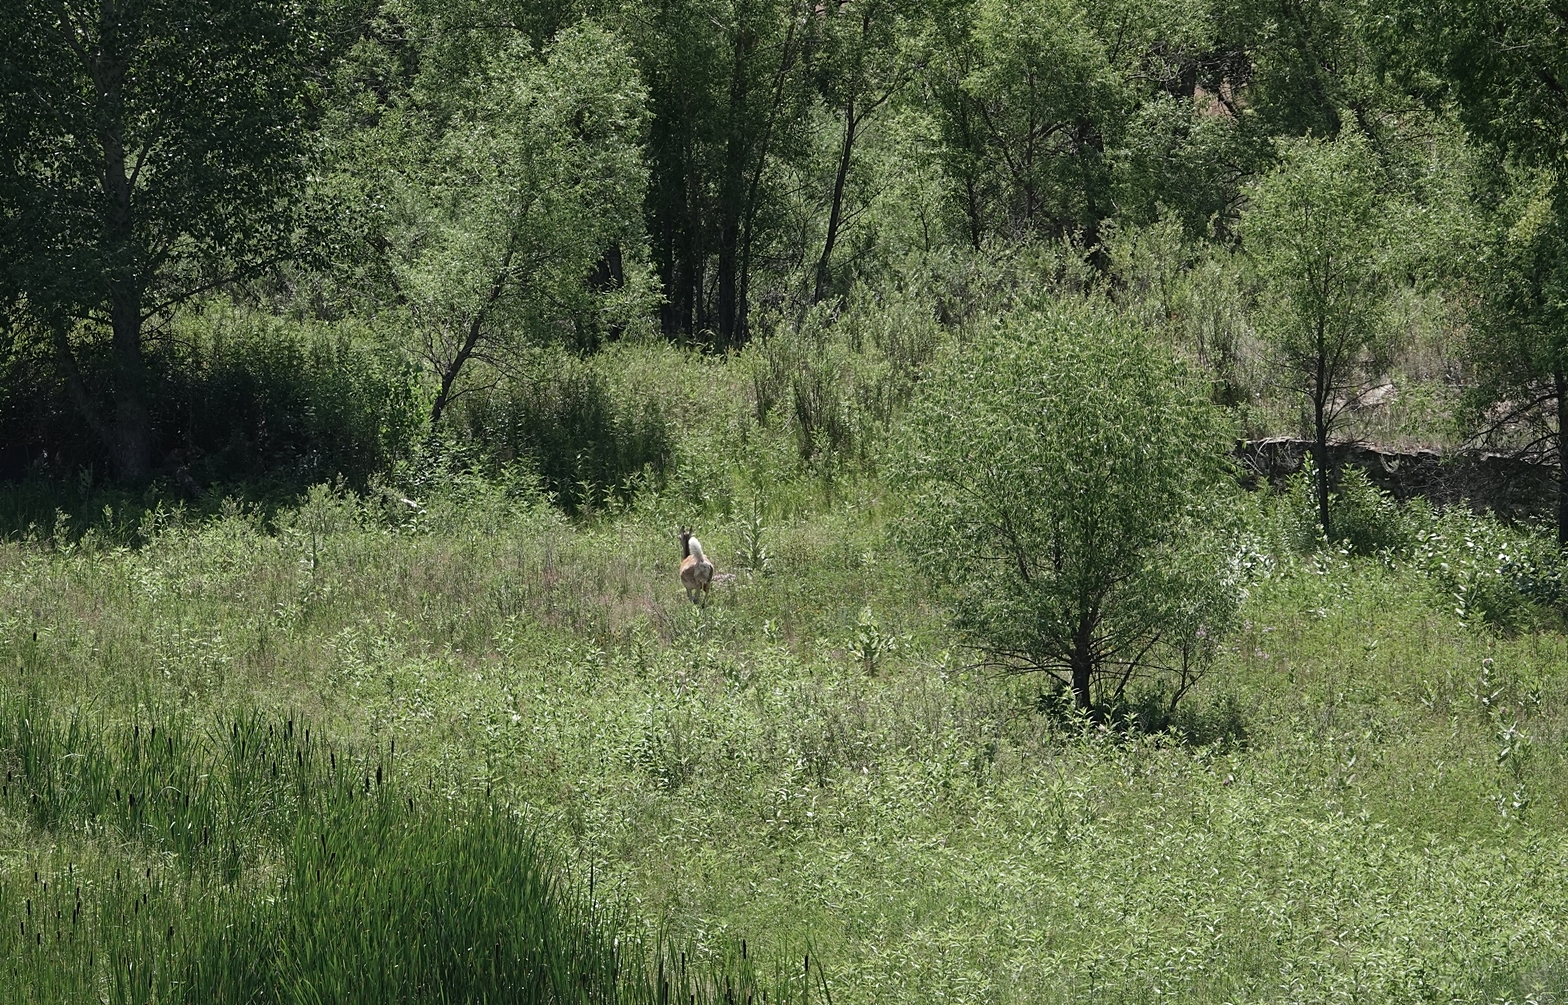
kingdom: Animalia
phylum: Chordata
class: Mammalia
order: Artiodactyla
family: Cervidae
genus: Odocoileus
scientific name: Odocoileus virginianus
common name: White-tailed deer
